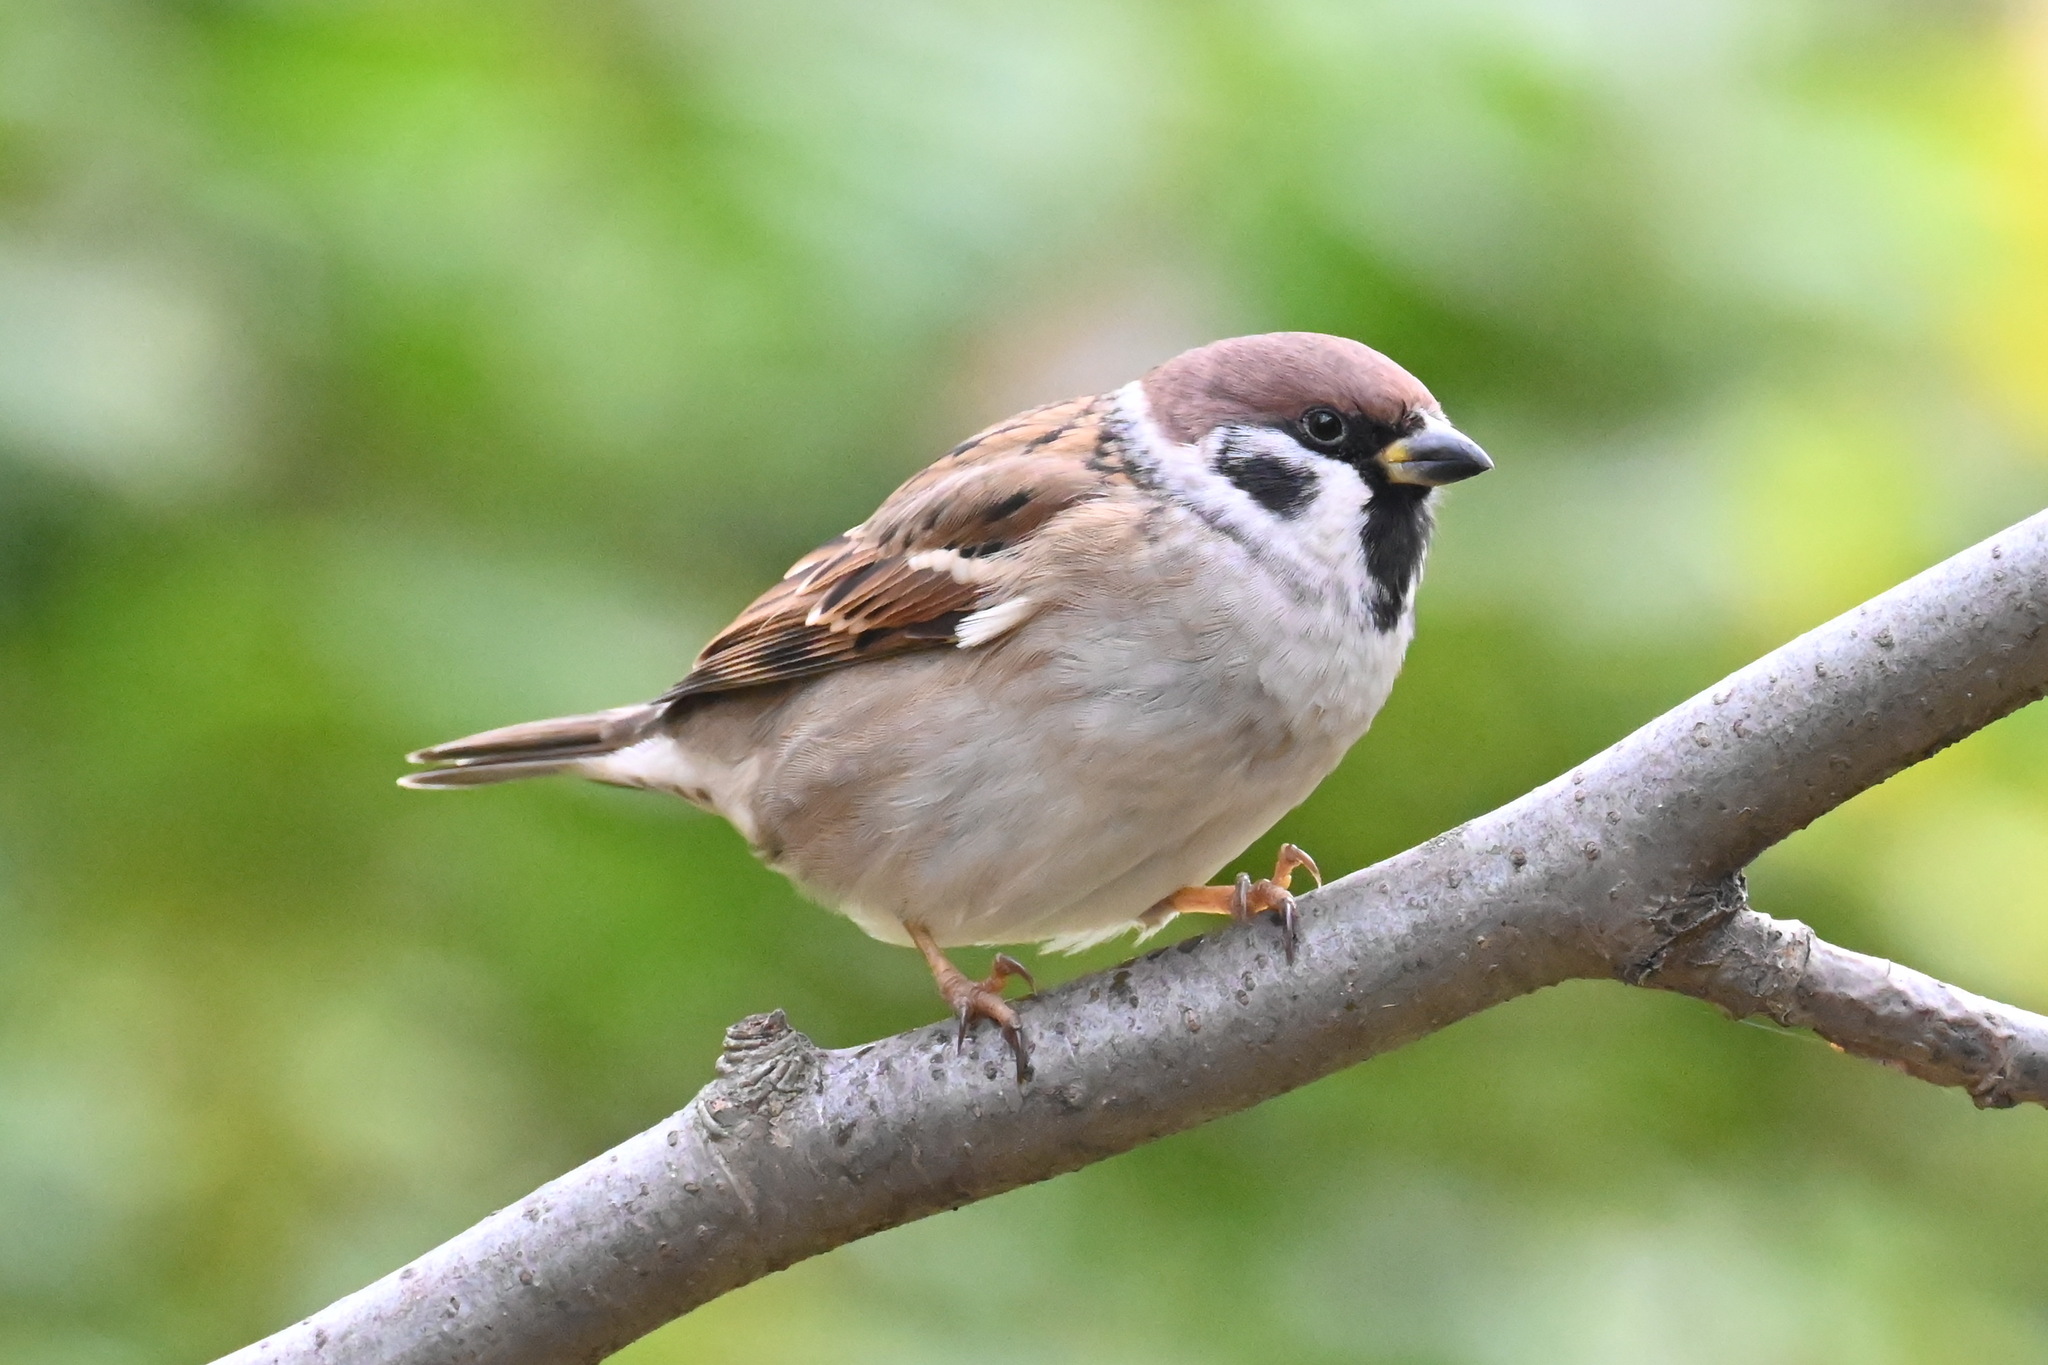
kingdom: Animalia
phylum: Chordata
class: Aves
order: Passeriformes
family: Passeridae
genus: Passer
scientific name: Passer montanus
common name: Eurasian tree sparrow
